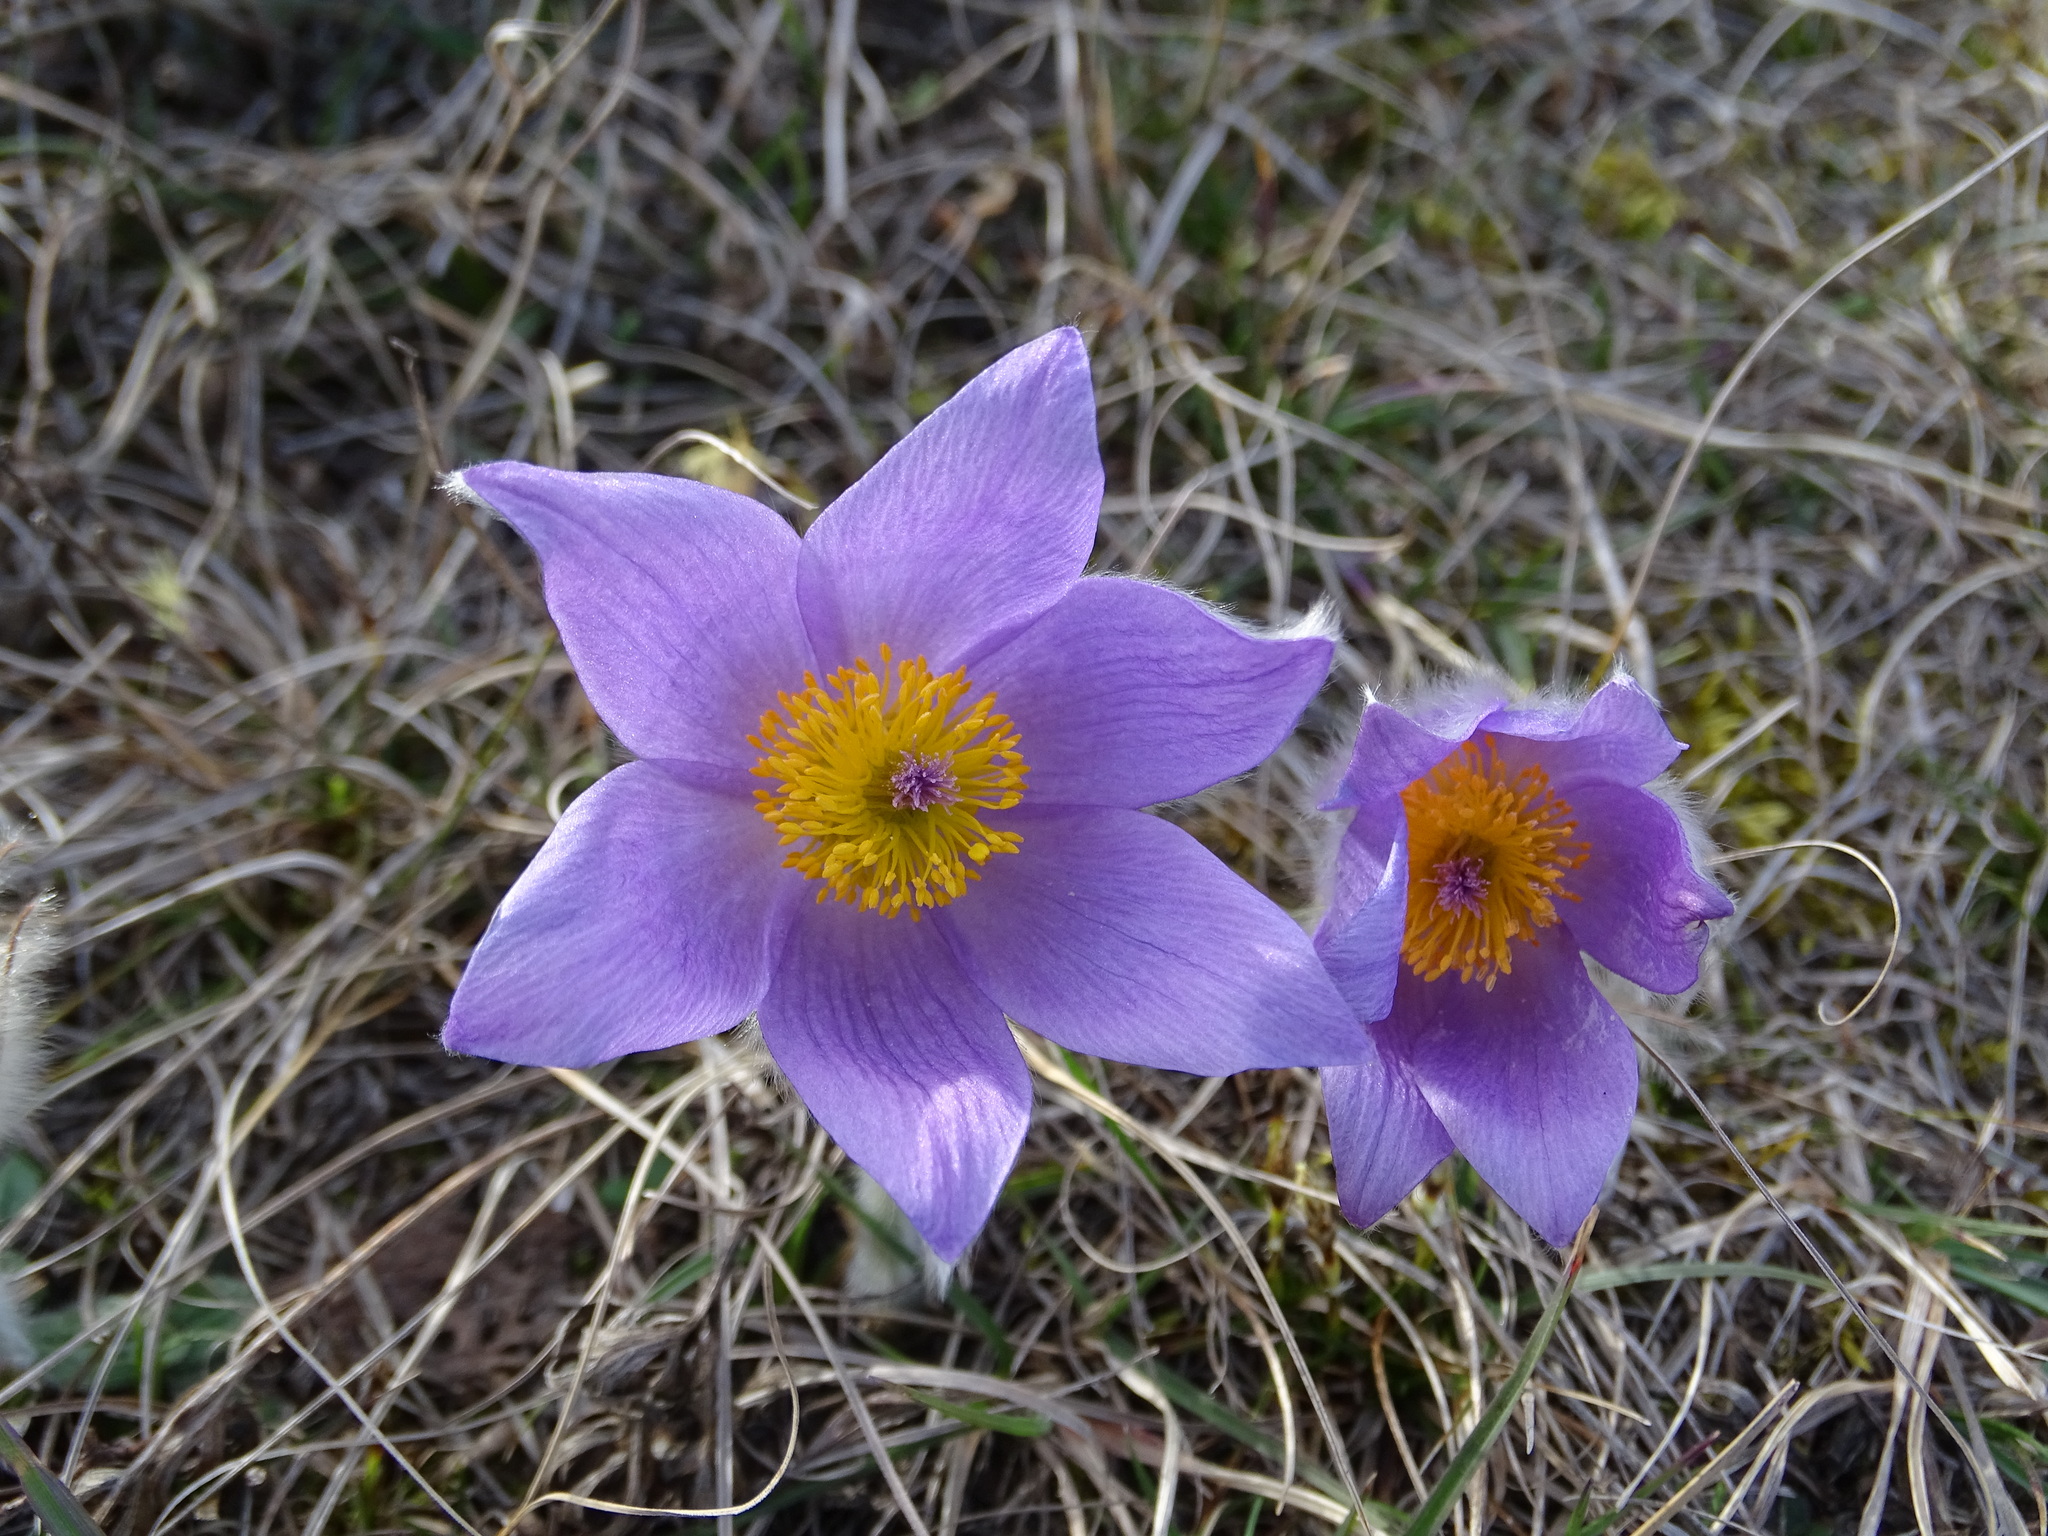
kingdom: Plantae
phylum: Tracheophyta
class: Magnoliopsida
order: Ranunculales
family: Ranunculaceae
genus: Pulsatilla
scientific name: Pulsatilla grandis
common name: Greater pasque flower
